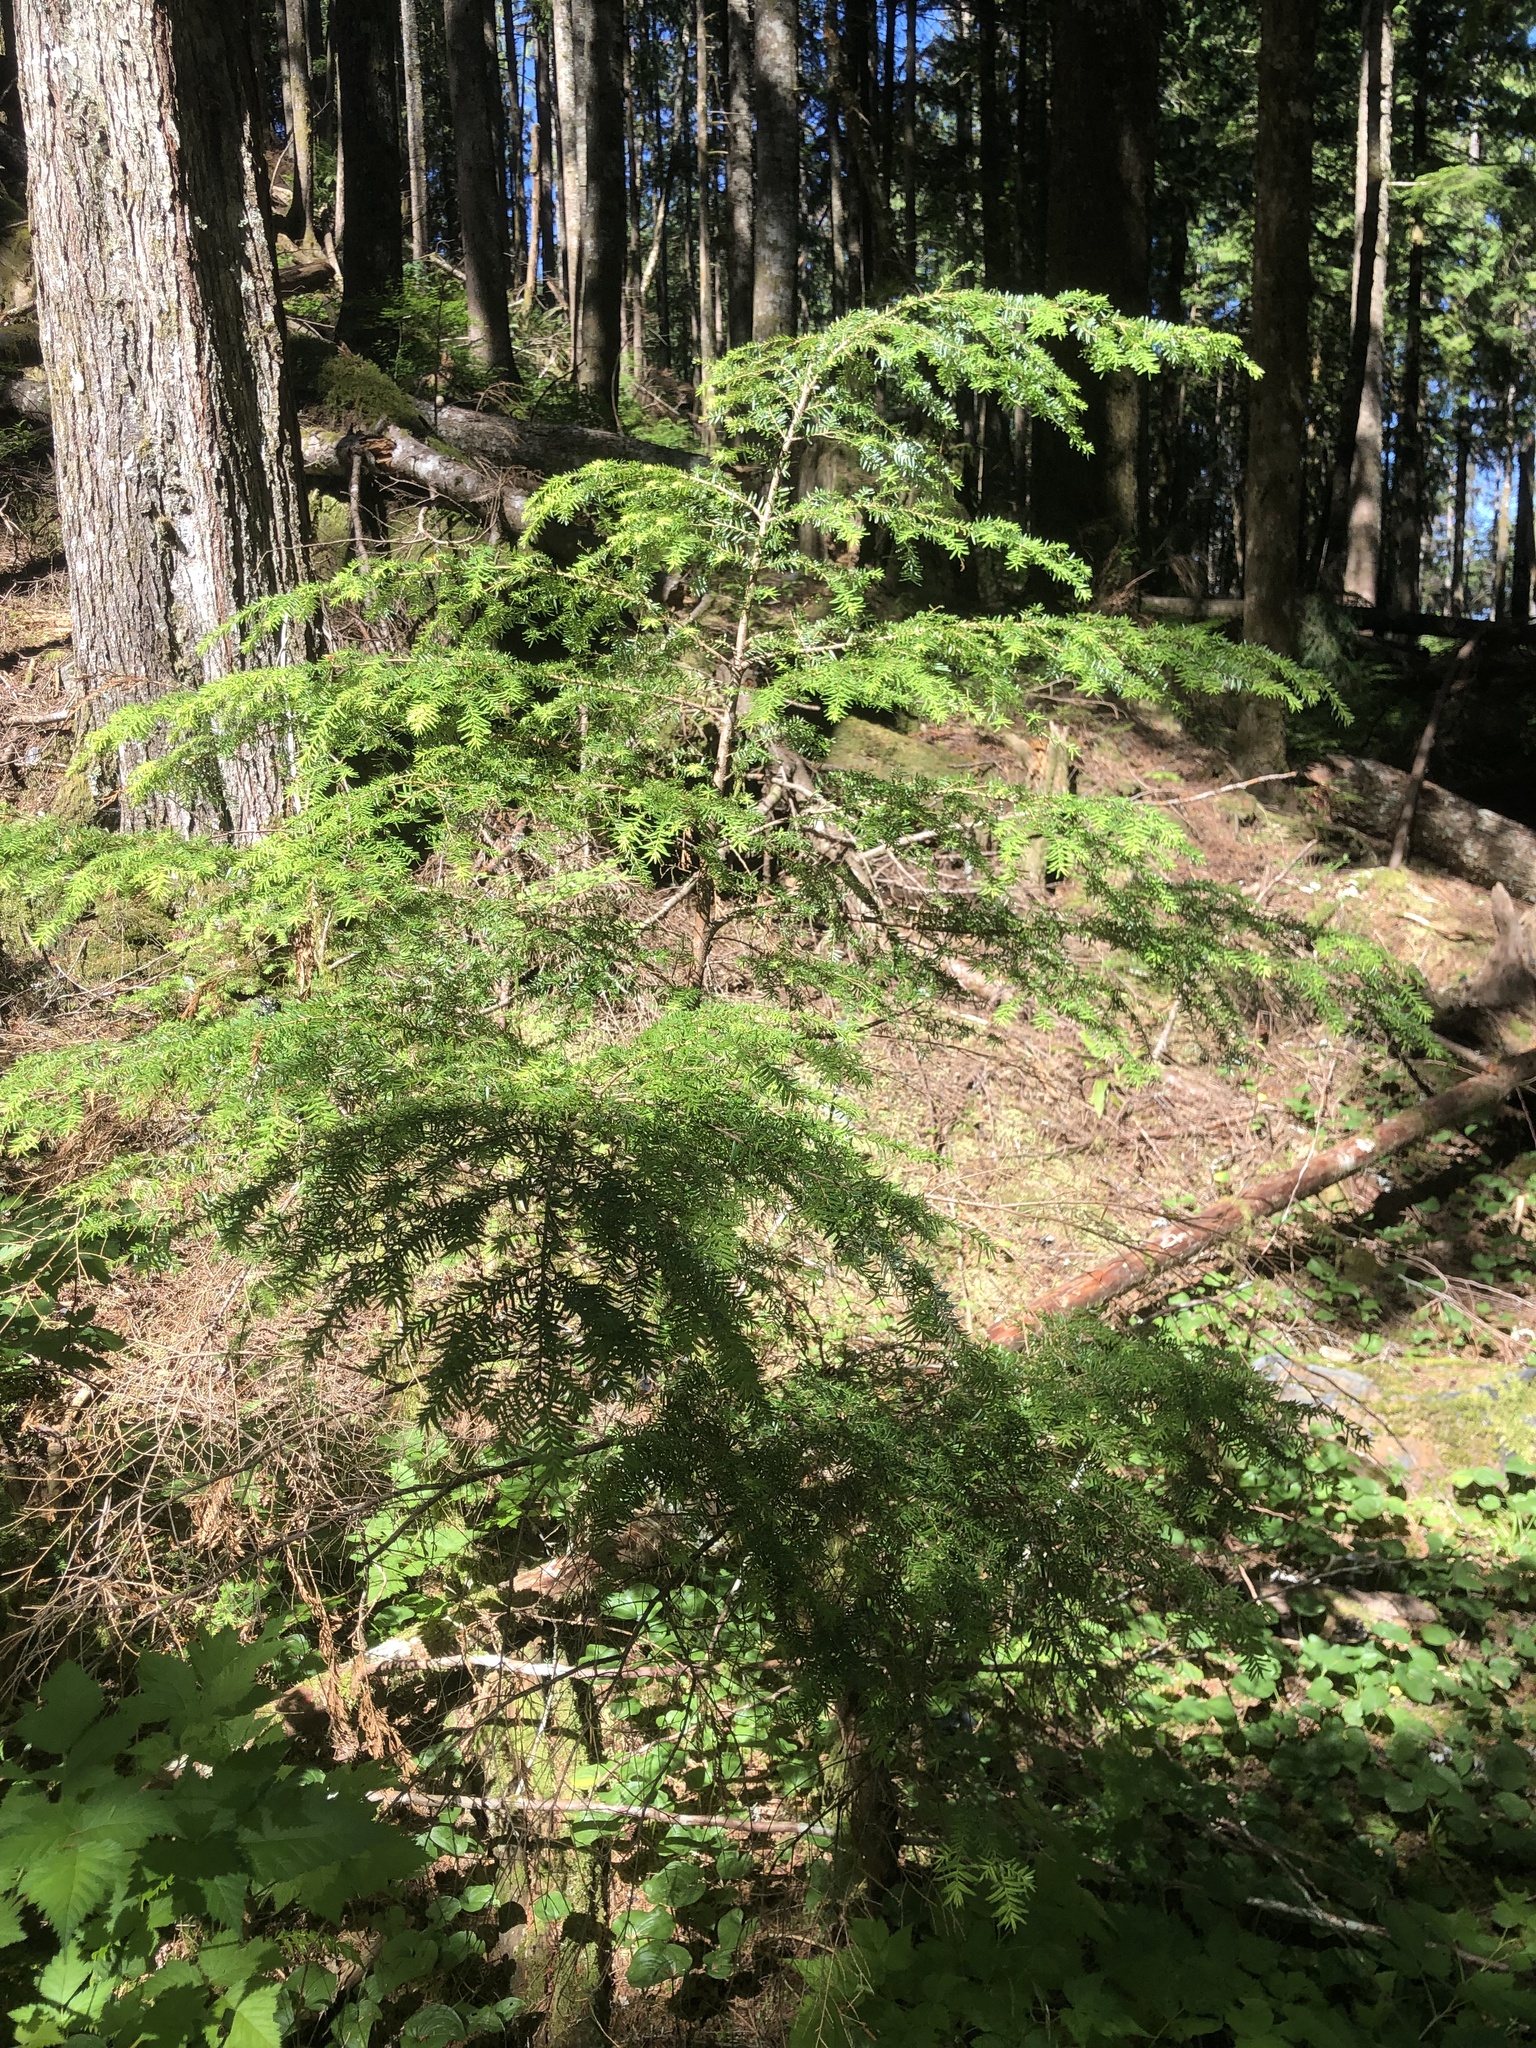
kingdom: Plantae
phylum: Tracheophyta
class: Pinopsida
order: Pinales
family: Pinaceae
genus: Tsuga
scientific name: Tsuga heterophylla
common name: Western hemlock
